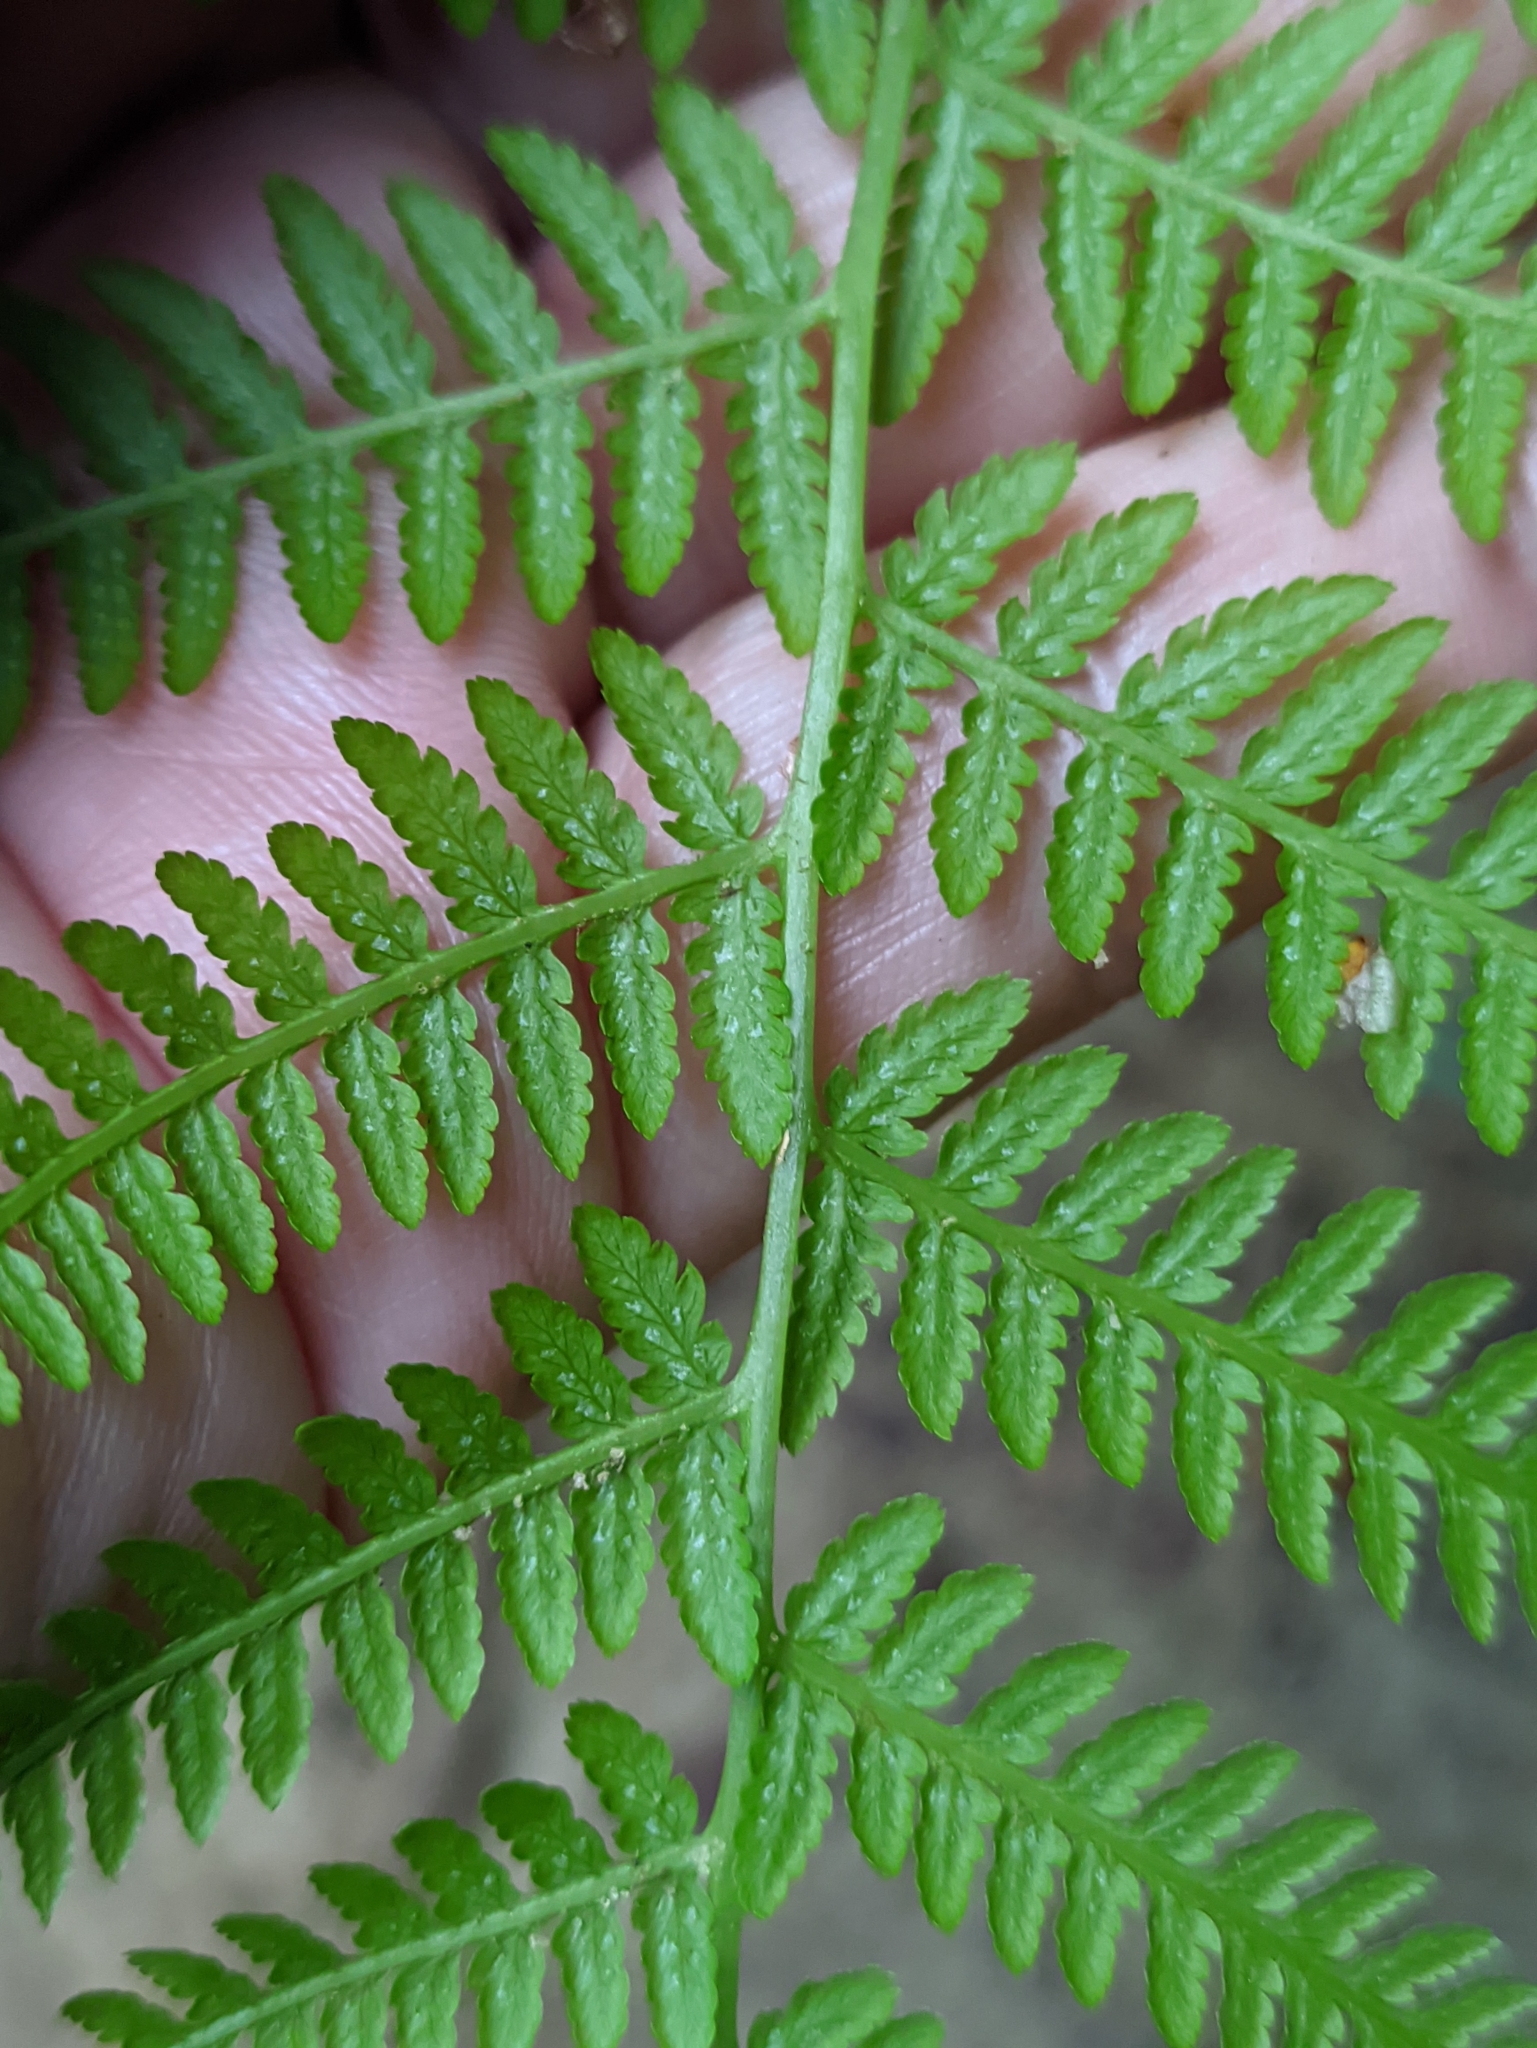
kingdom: Plantae
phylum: Tracheophyta
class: Polypodiopsida
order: Polypodiales
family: Athyriaceae
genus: Athyrium
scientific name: Athyrium filix-femina
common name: Lady fern
